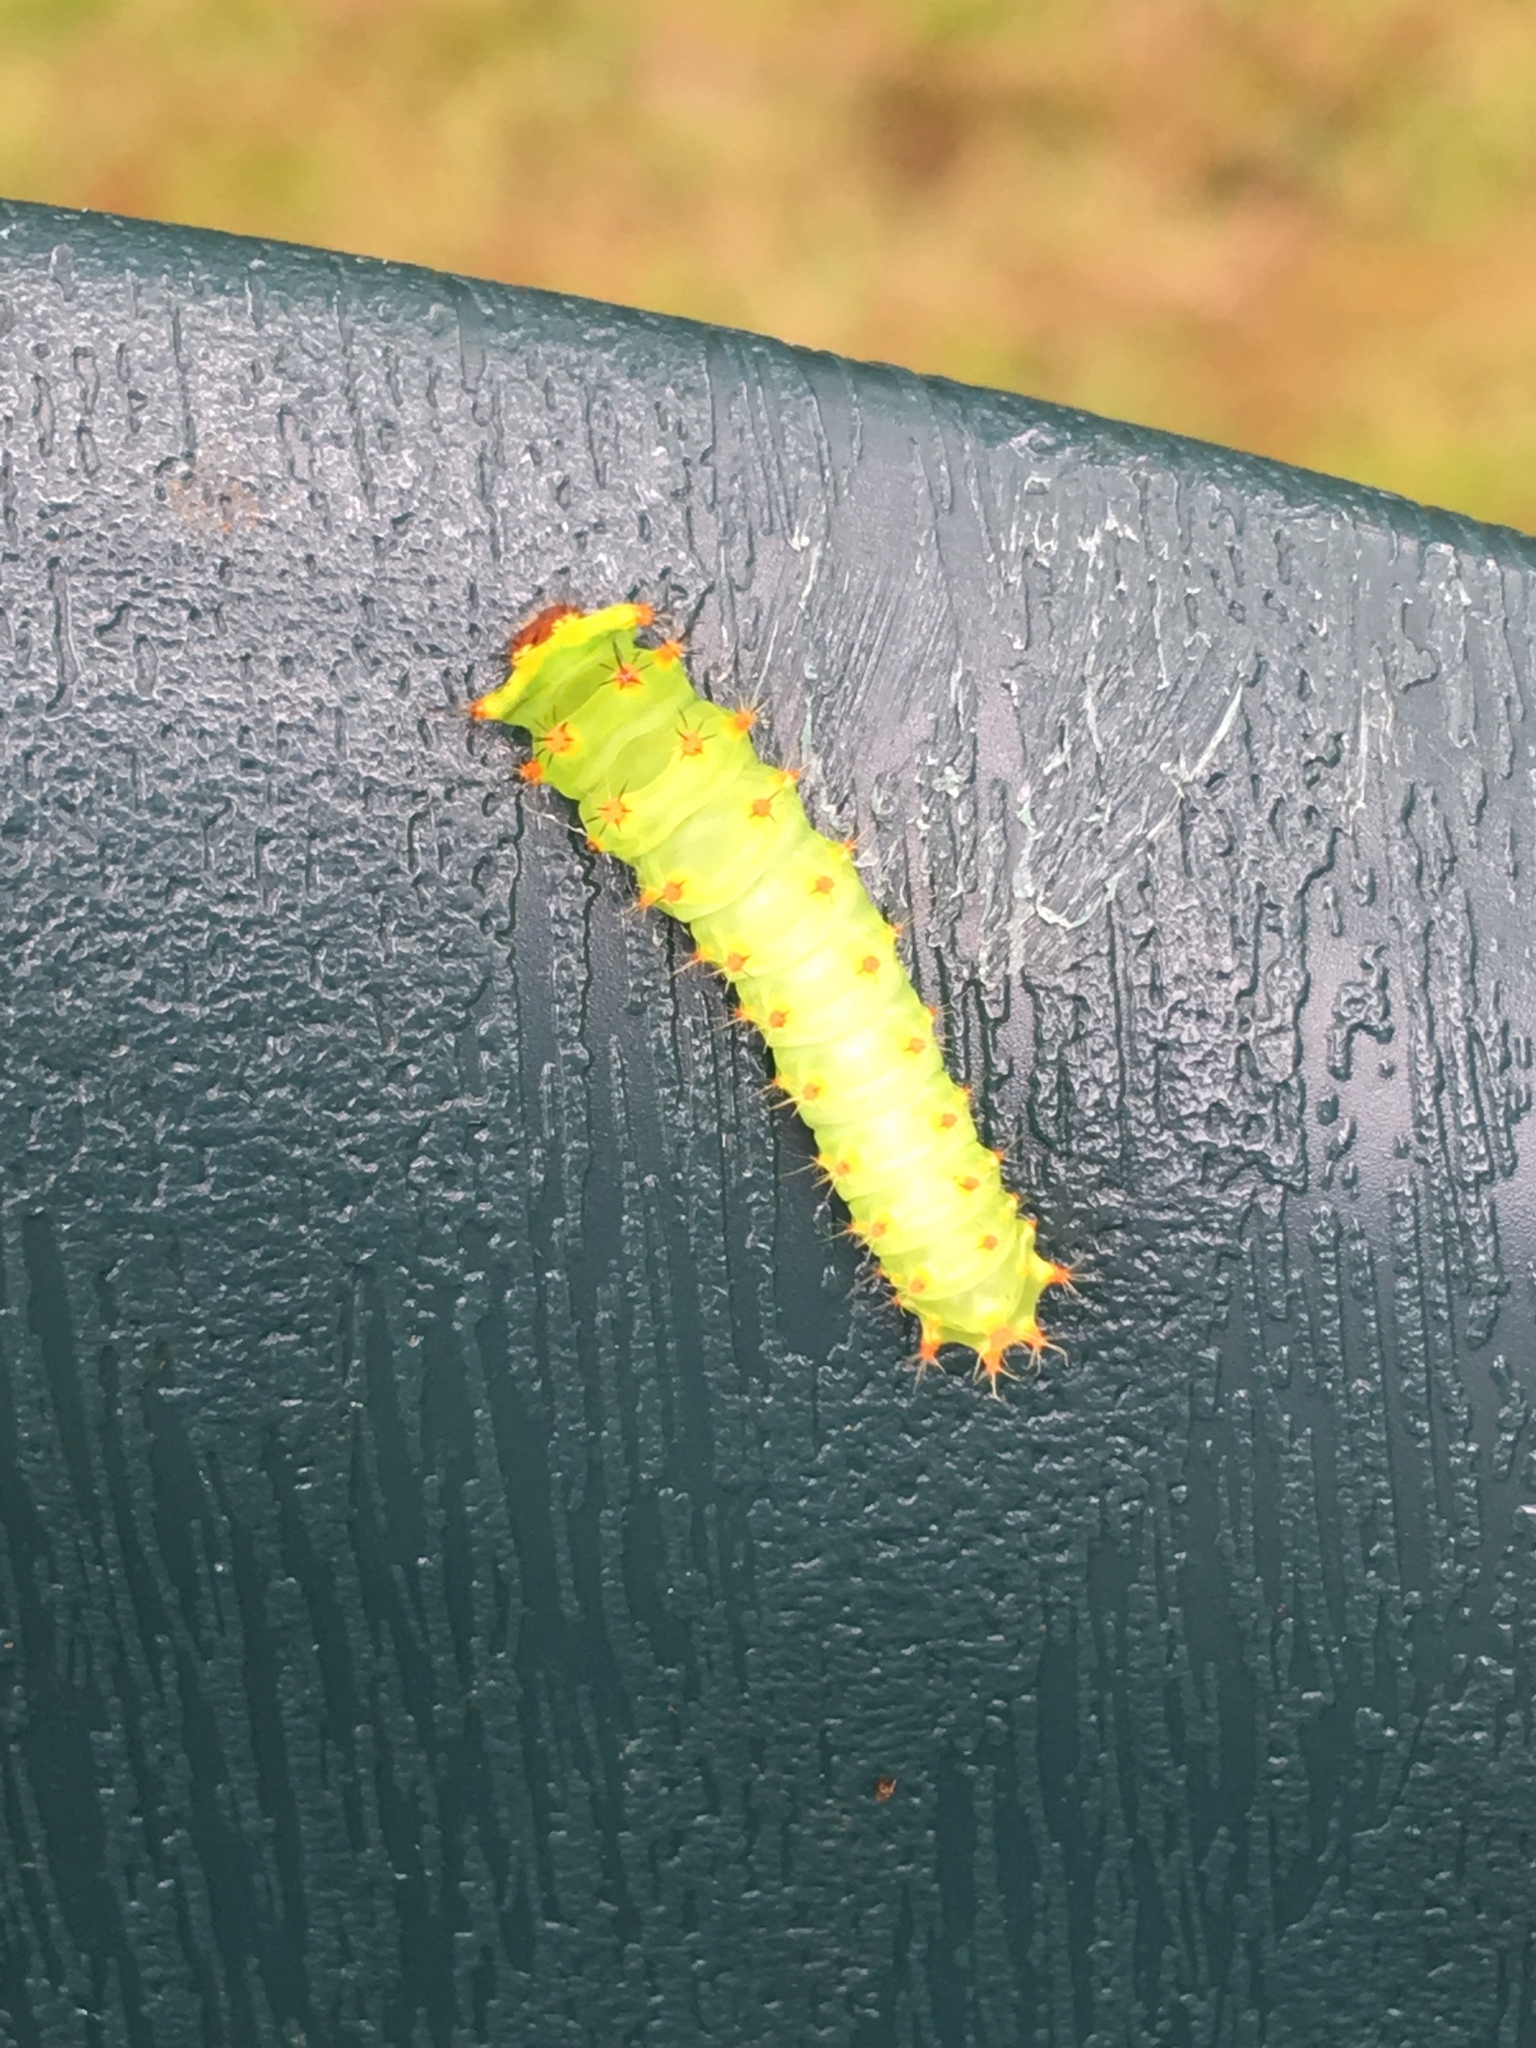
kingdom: Animalia
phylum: Arthropoda
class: Insecta
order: Lepidoptera
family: Saturniidae
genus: Antheraea
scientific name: Antheraea polyphemus
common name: Polyphemus moth
